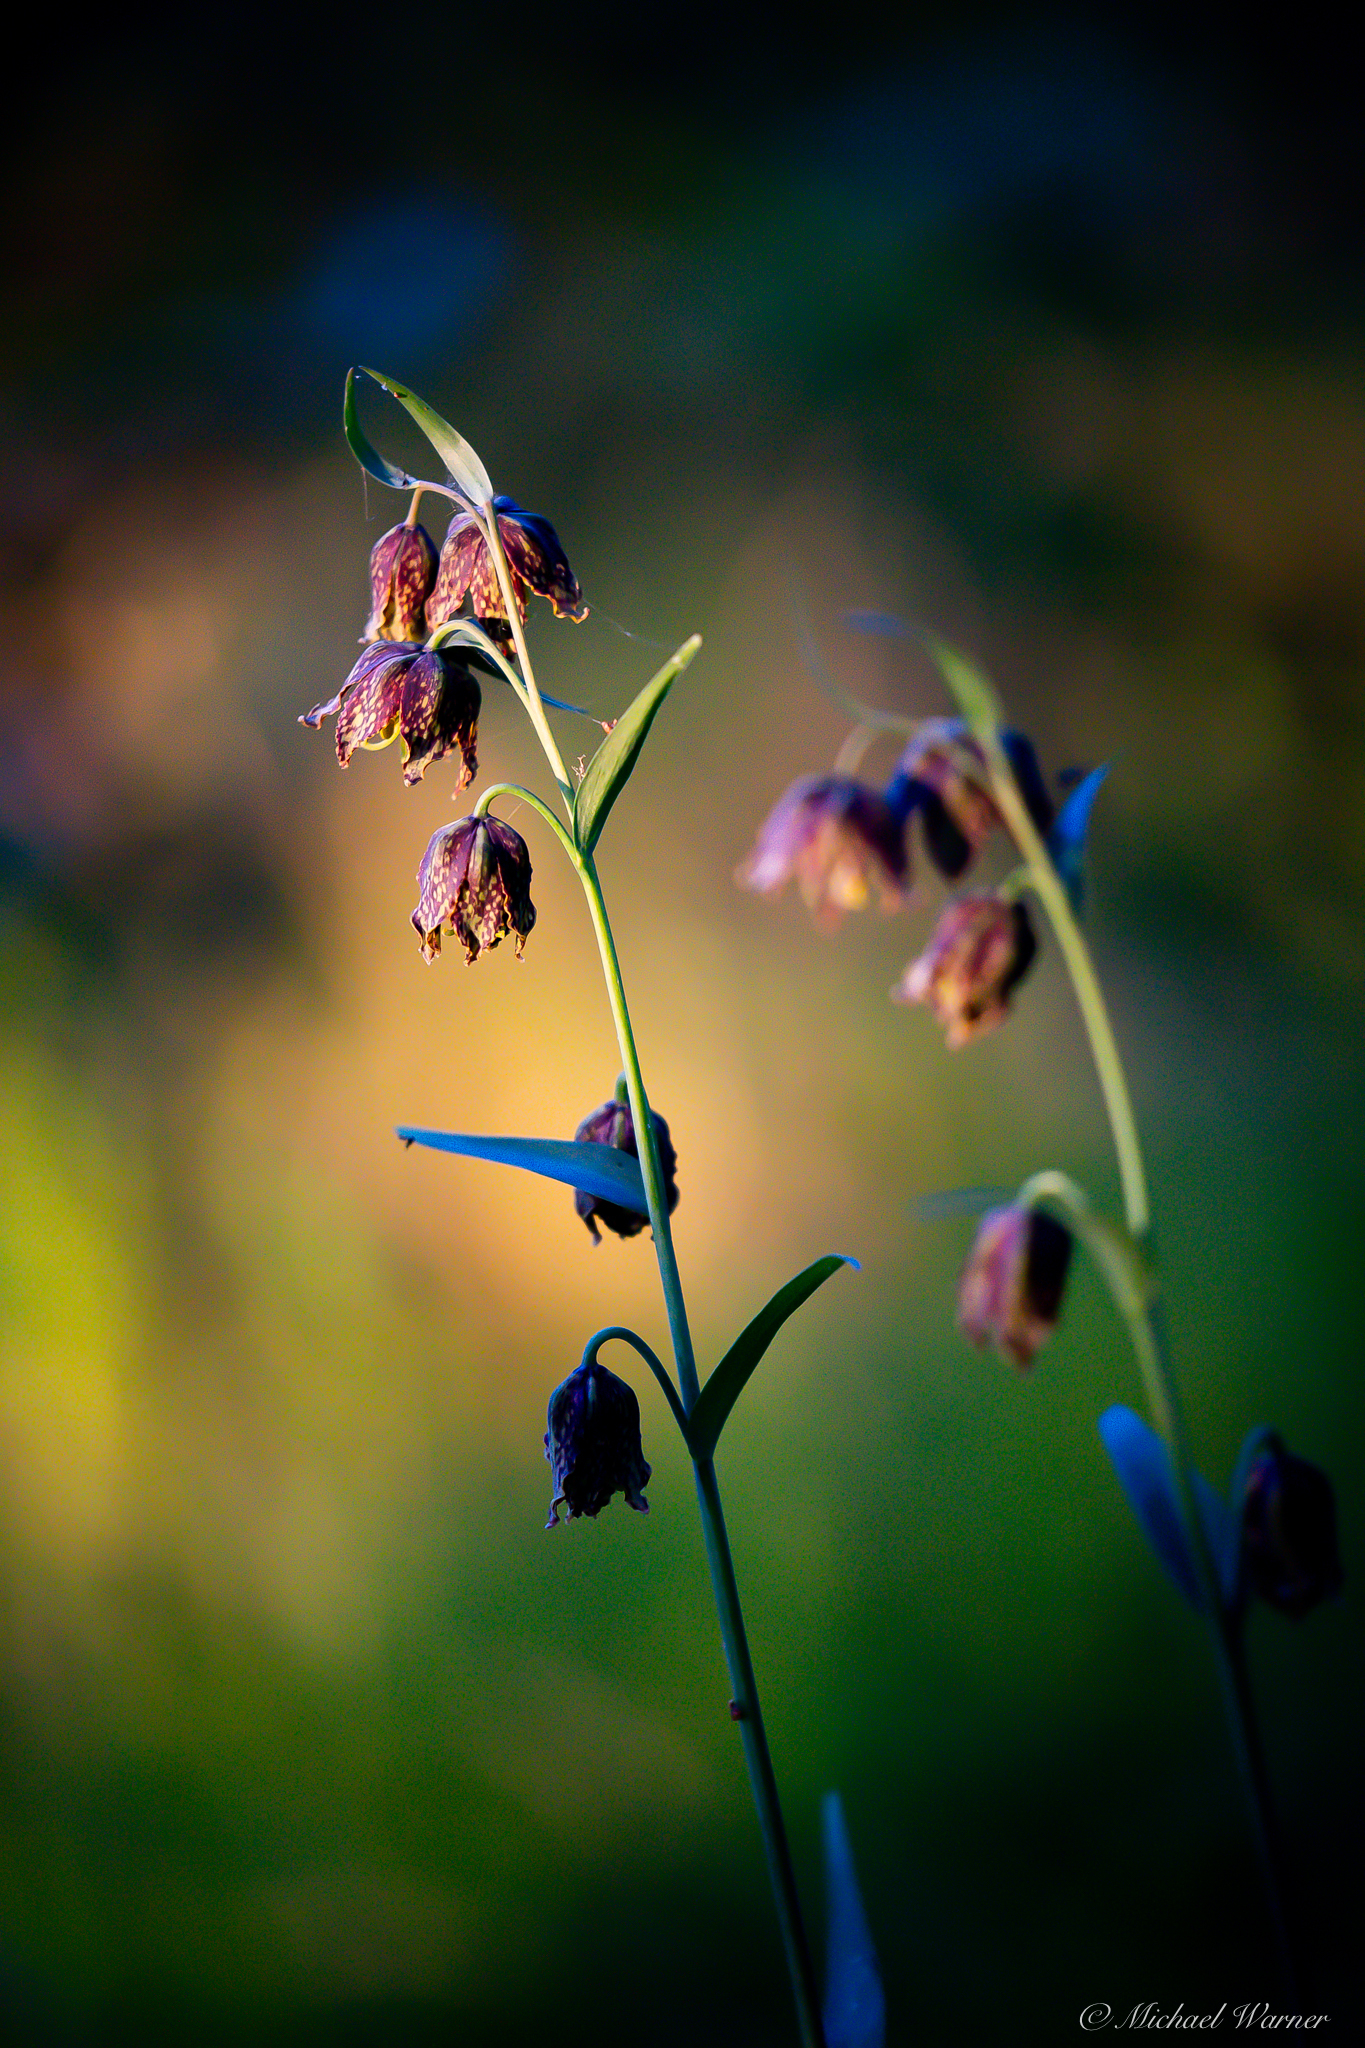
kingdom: Plantae
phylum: Tracheophyta
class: Liliopsida
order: Liliales
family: Liliaceae
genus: Fritillaria
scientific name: Fritillaria affinis
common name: Ojai fritillary
